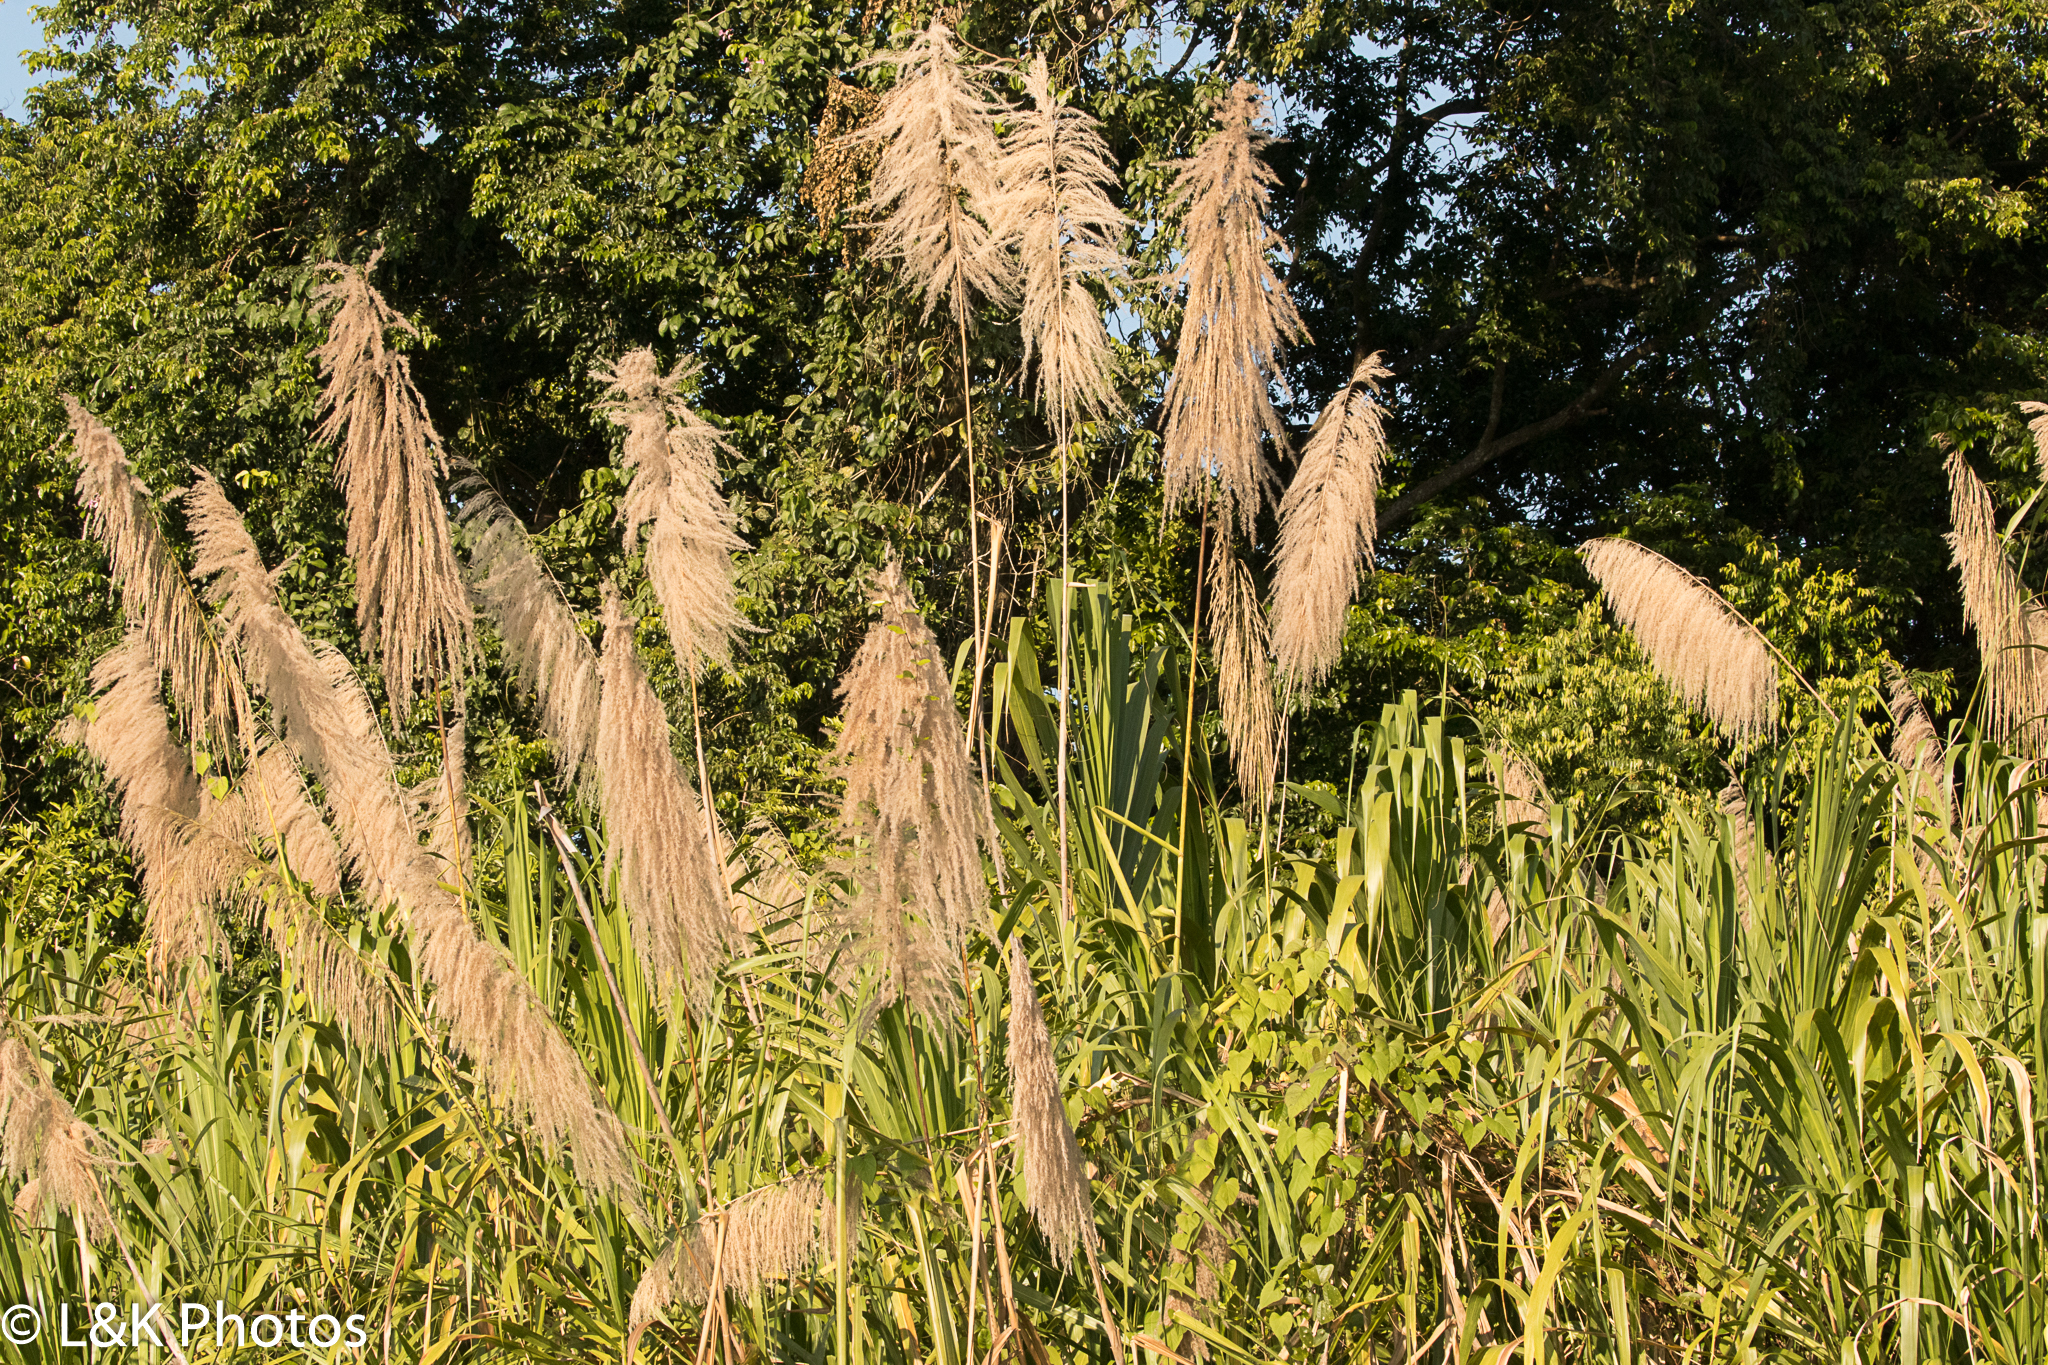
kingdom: Plantae
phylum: Tracheophyta
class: Liliopsida
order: Poales
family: Poaceae
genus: Gynerium
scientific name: Gynerium sagittatum
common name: Wild cane
